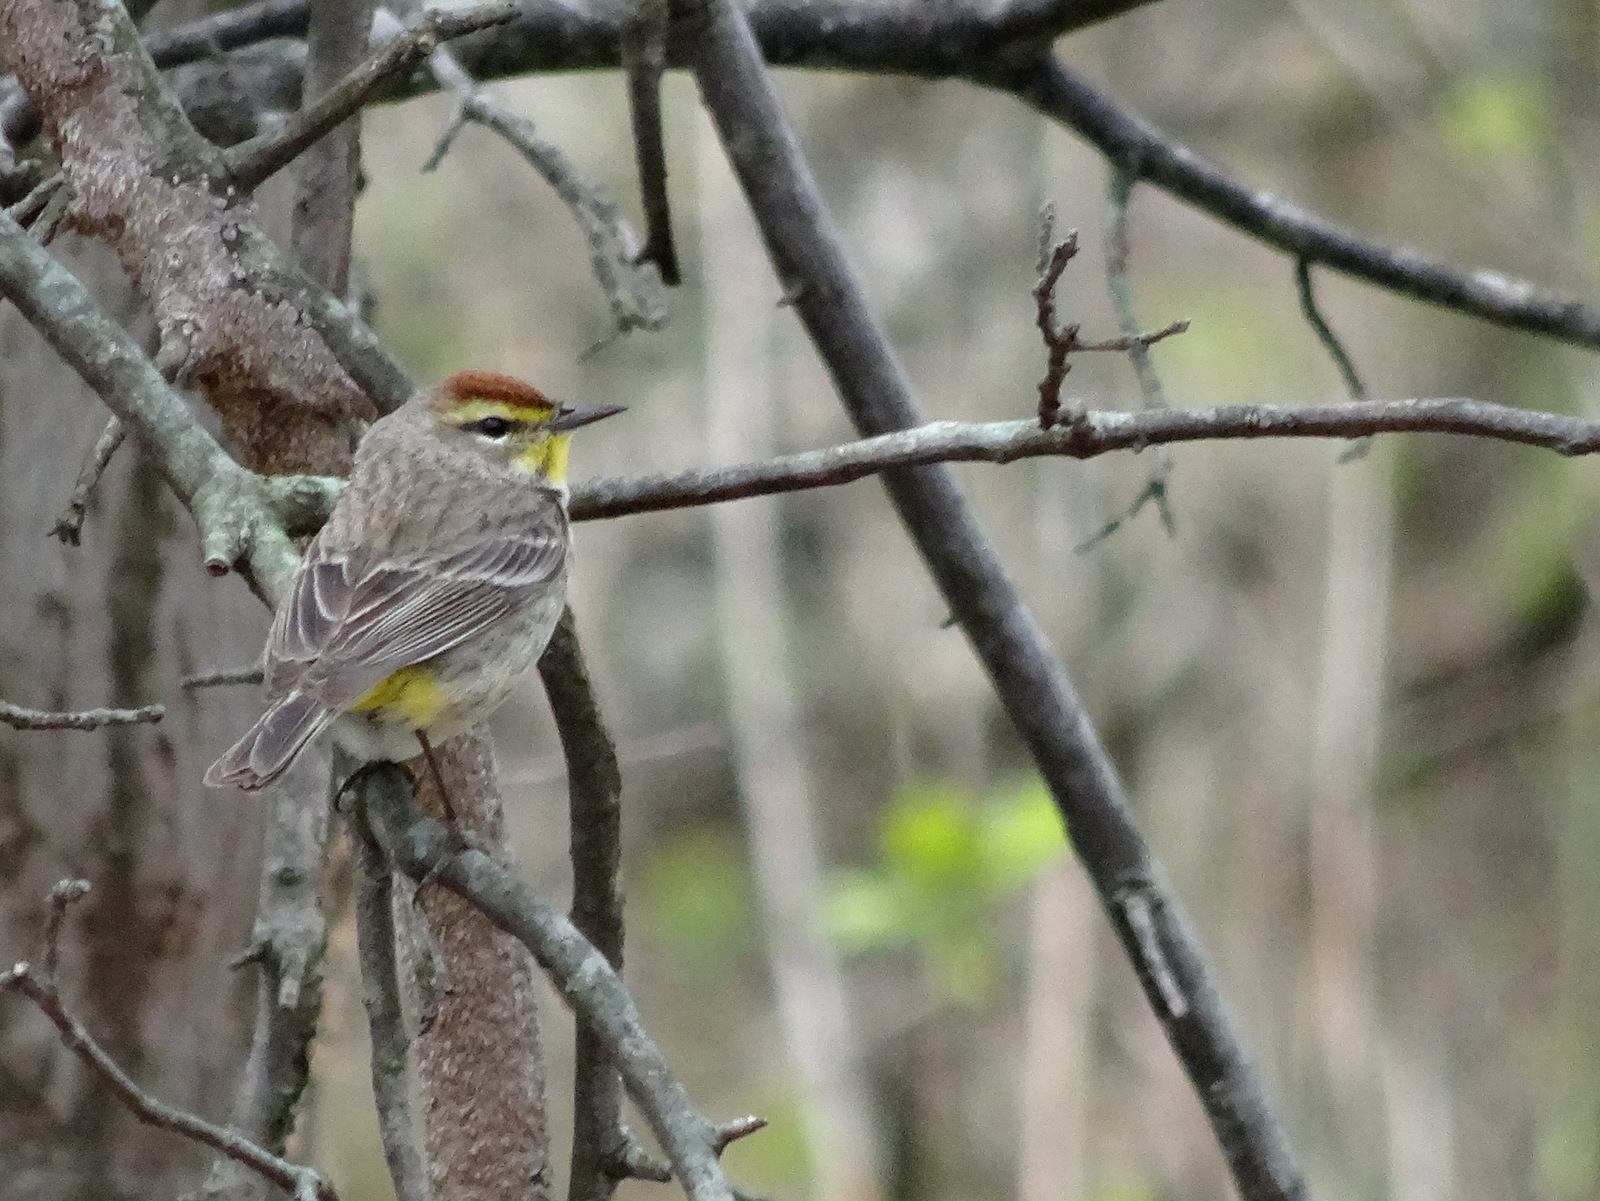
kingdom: Animalia
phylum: Chordata
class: Aves
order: Passeriformes
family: Parulidae
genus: Setophaga
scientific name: Setophaga palmarum
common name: Palm warbler
